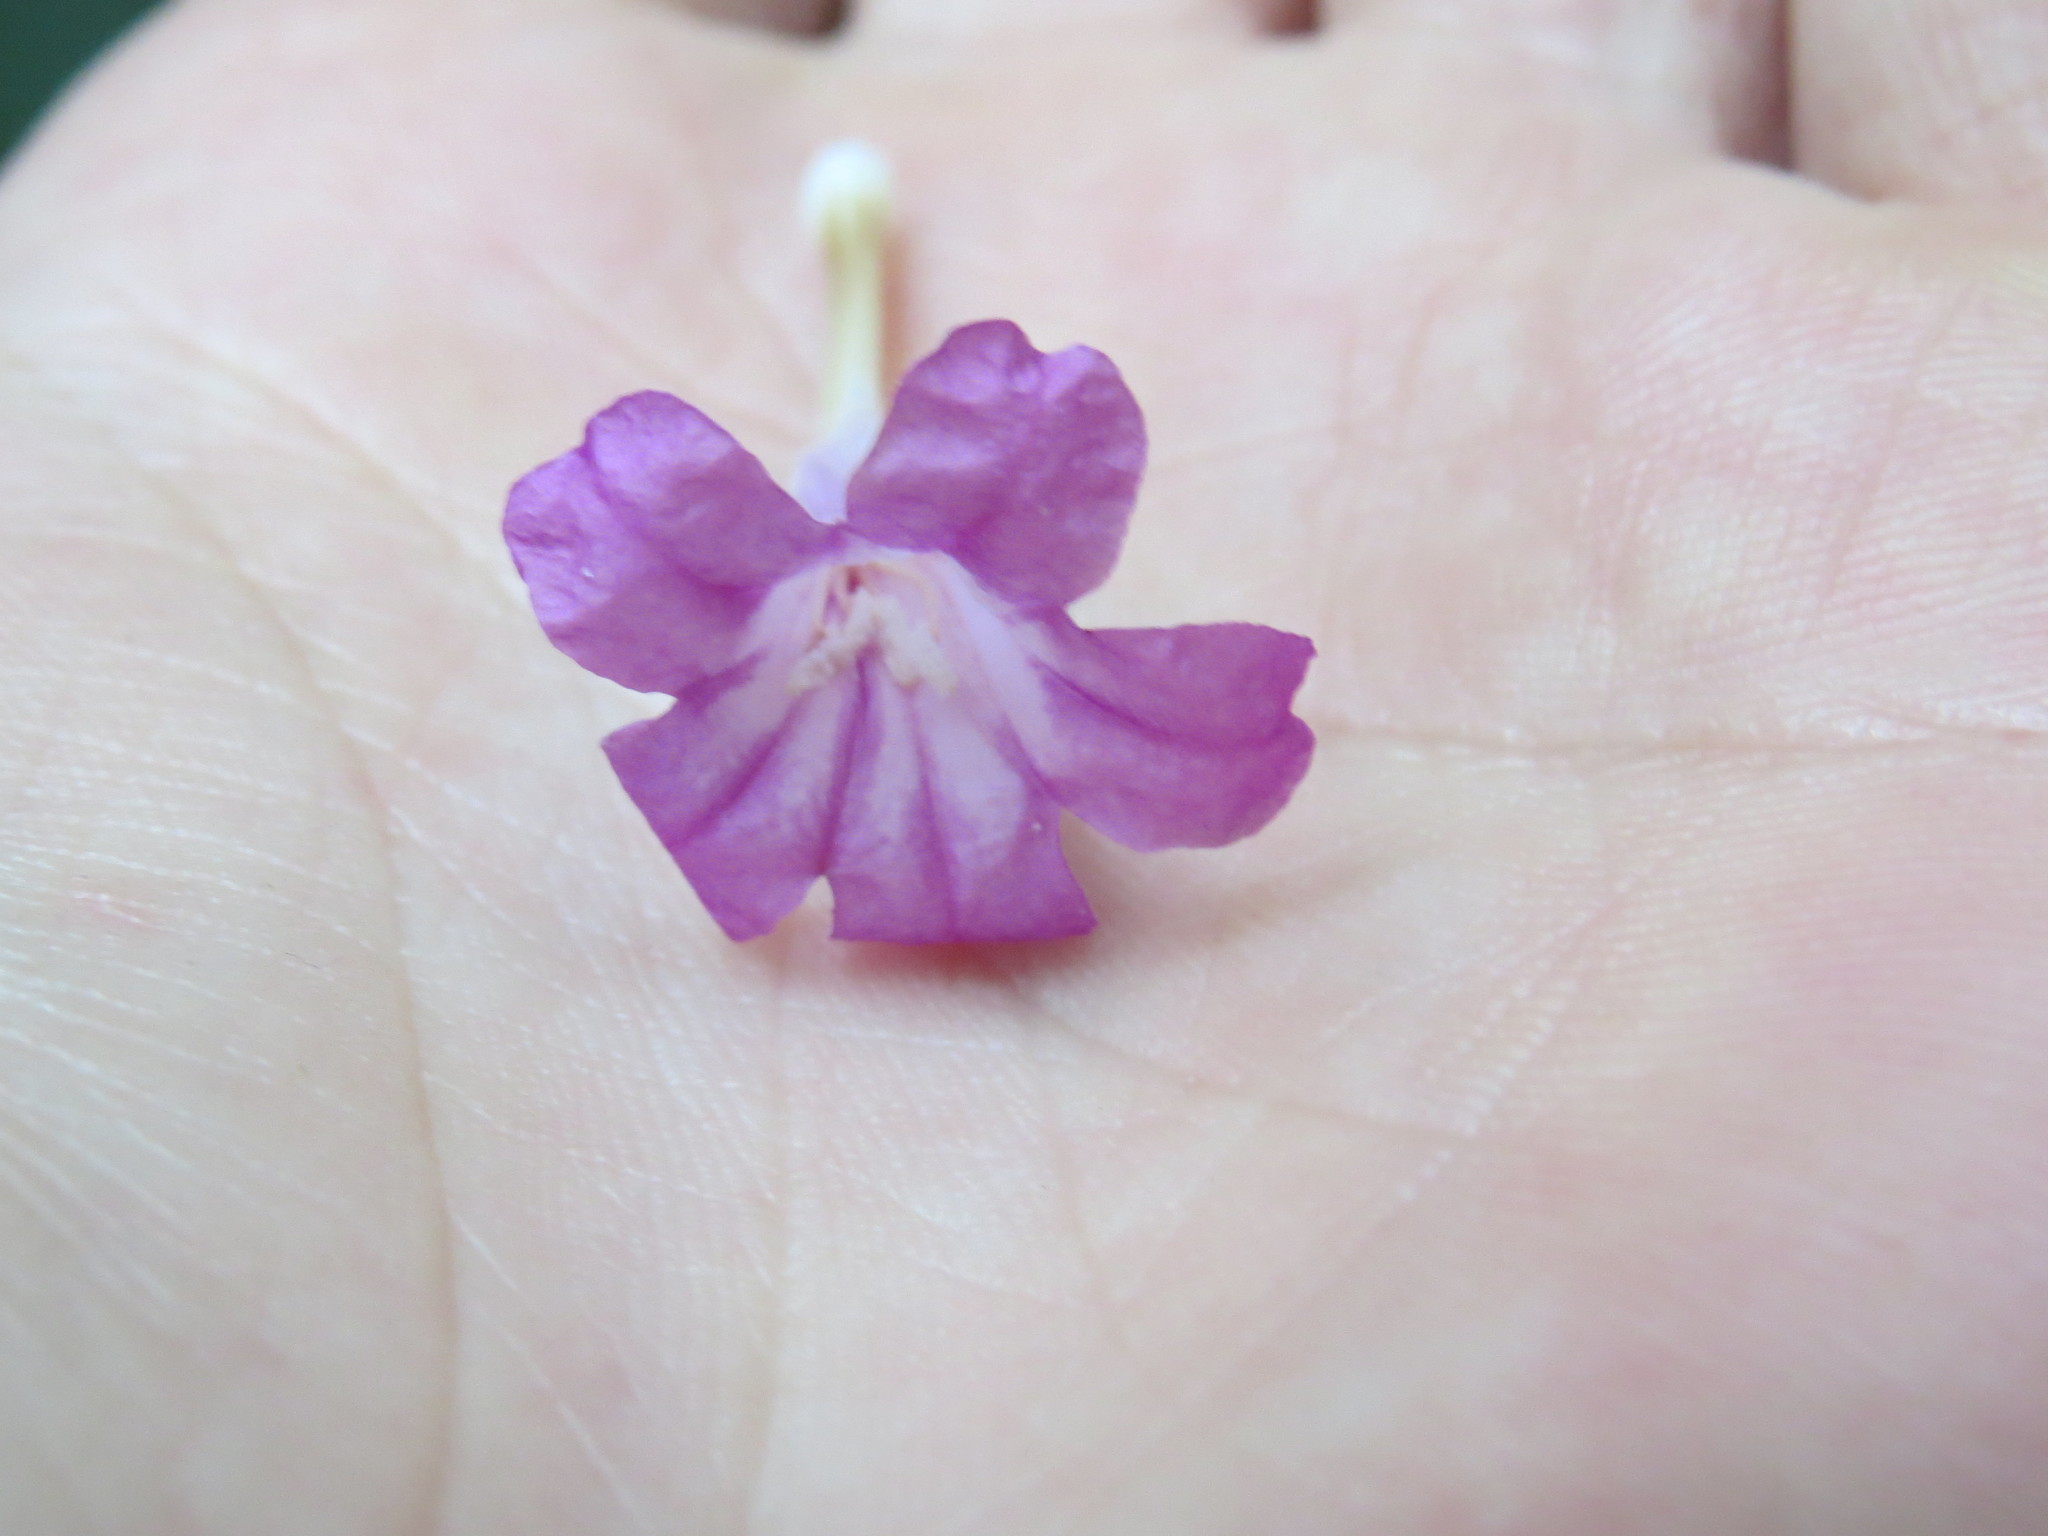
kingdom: Plantae
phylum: Tracheophyta
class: Magnoliopsida
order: Lamiales
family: Acanthaceae
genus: Ruellia
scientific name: Ruellia solitaria
